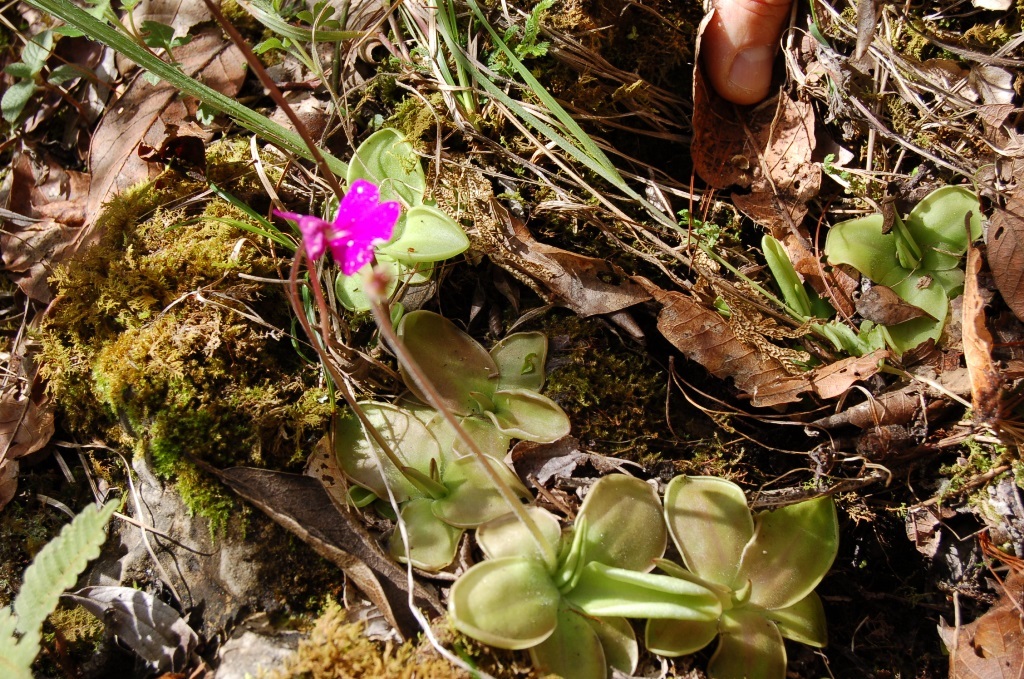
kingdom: Plantae
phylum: Tracheophyta
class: Magnoliopsida
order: Lamiales
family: Lentibulariaceae
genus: Pinguicula
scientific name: Pinguicula moranensis
